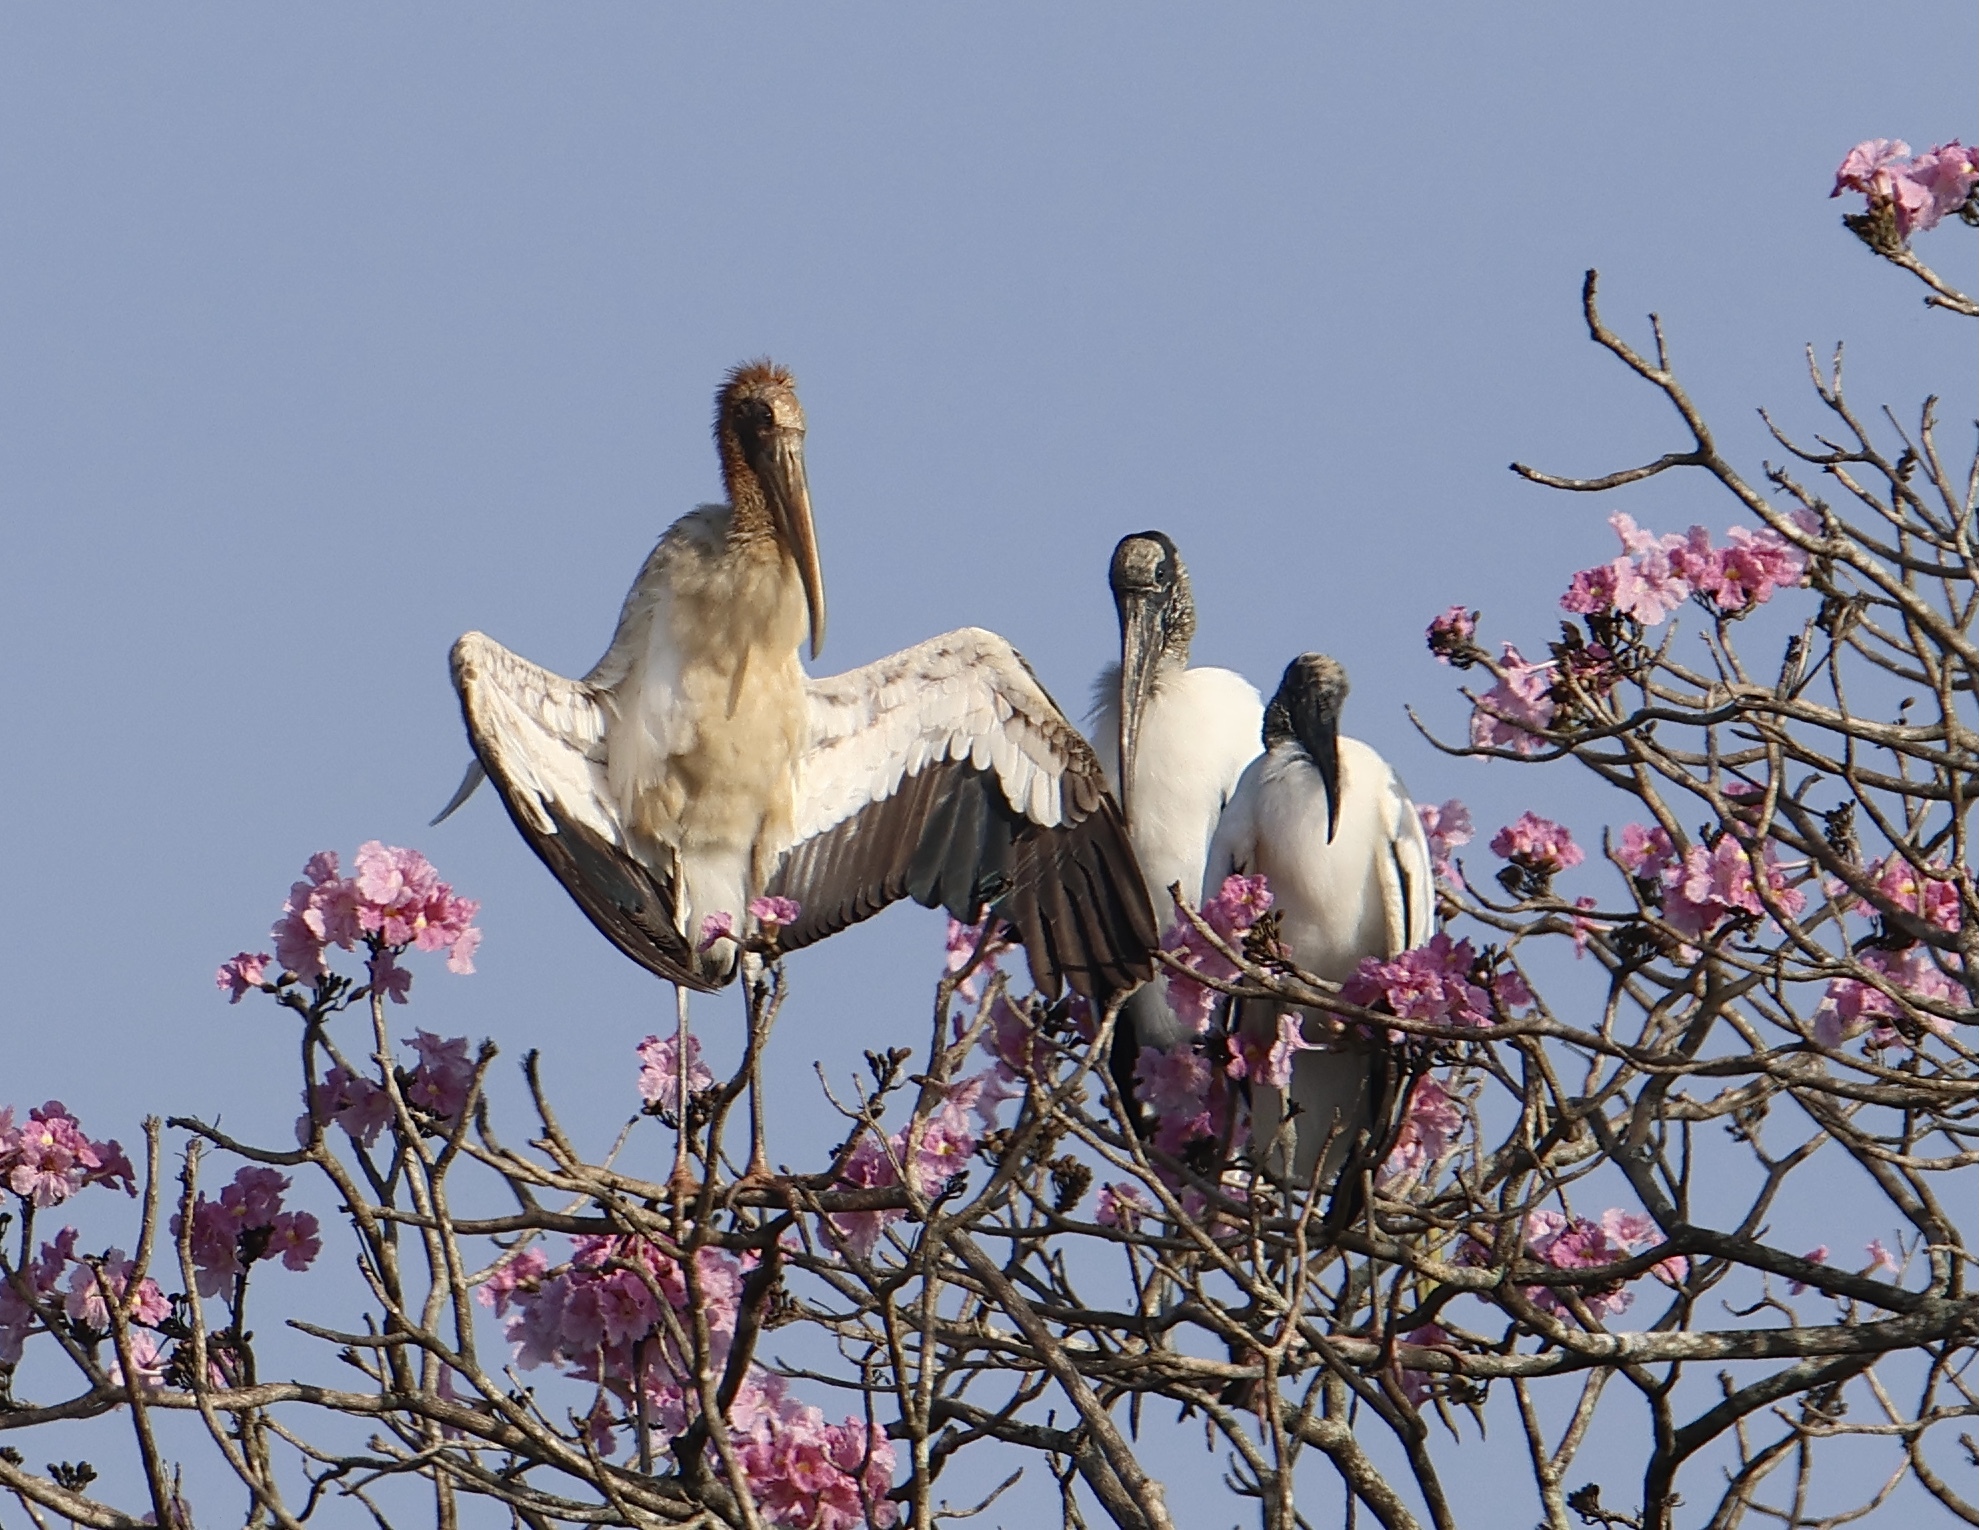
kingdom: Animalia
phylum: Chordata
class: Aves
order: Ciconiiformes
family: Ciconiidae
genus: Mycteria
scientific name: Mycteria americana
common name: Wood stork
